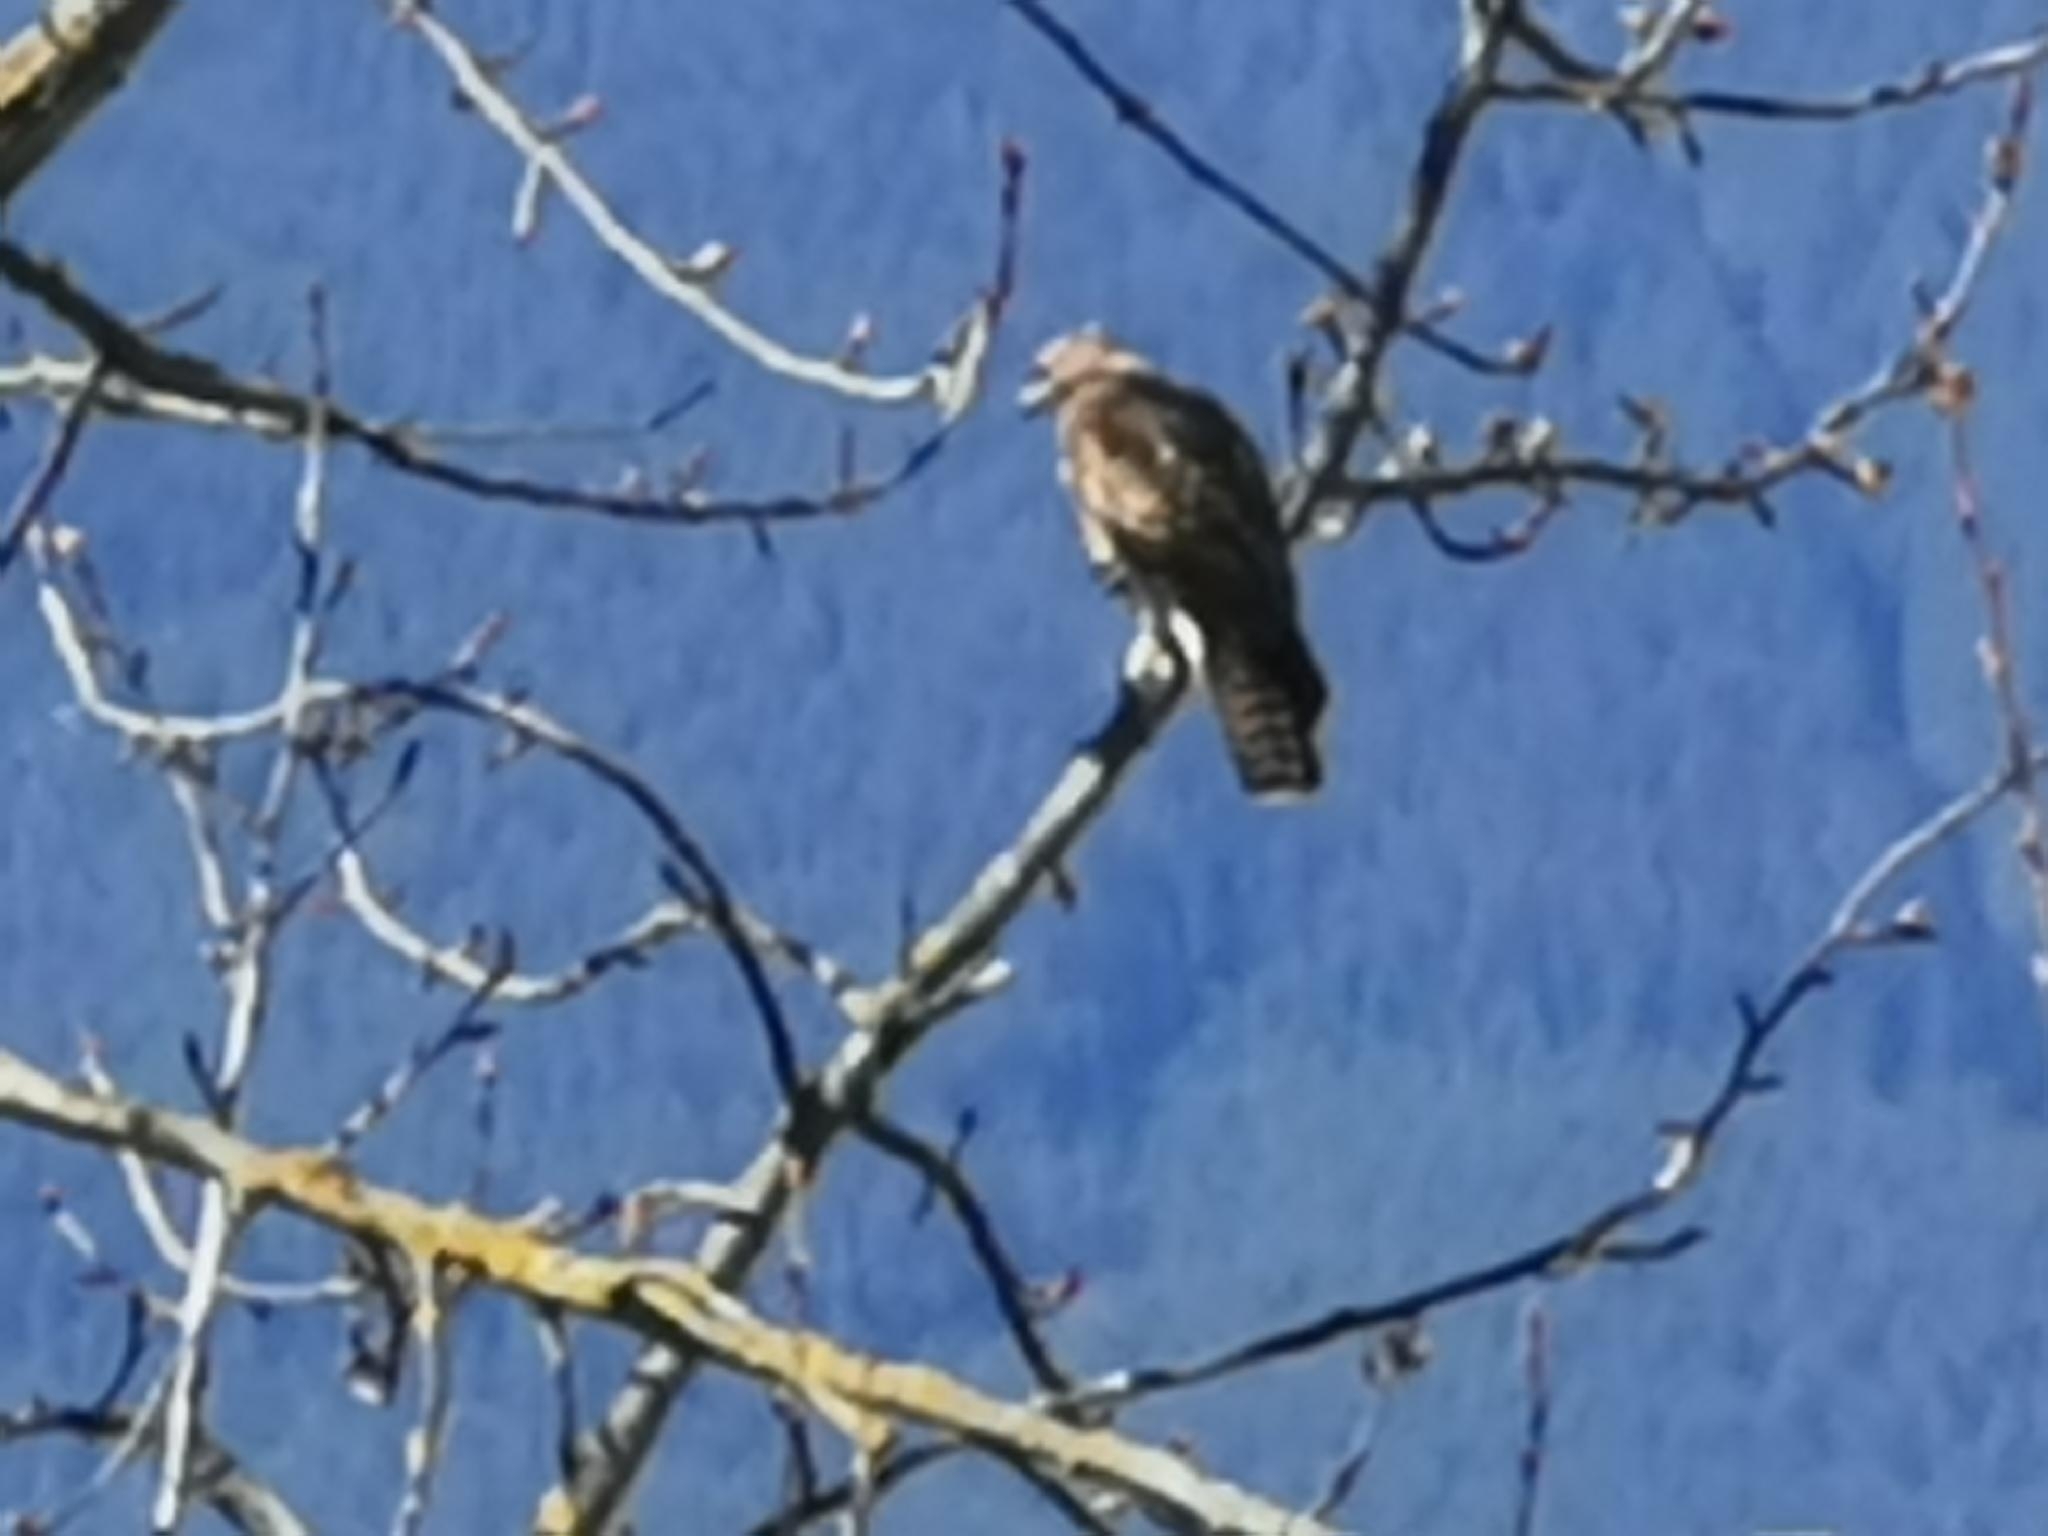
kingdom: Animalia
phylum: Chordata
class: Aves
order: Accipitriformes
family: Accipitridae
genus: Buteo
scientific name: Buteo jamaicensis
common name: Red-tailed hawk
